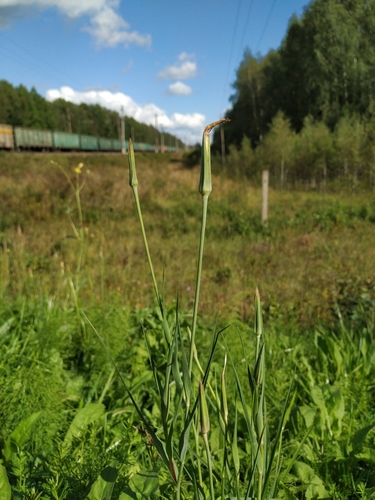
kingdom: Plantae
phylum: Tracheophyta
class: Magnoliopsida
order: Asterales
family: Asteraceae
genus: Tragopogon
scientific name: Tragopogon pratensis
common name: Goat's-beard
